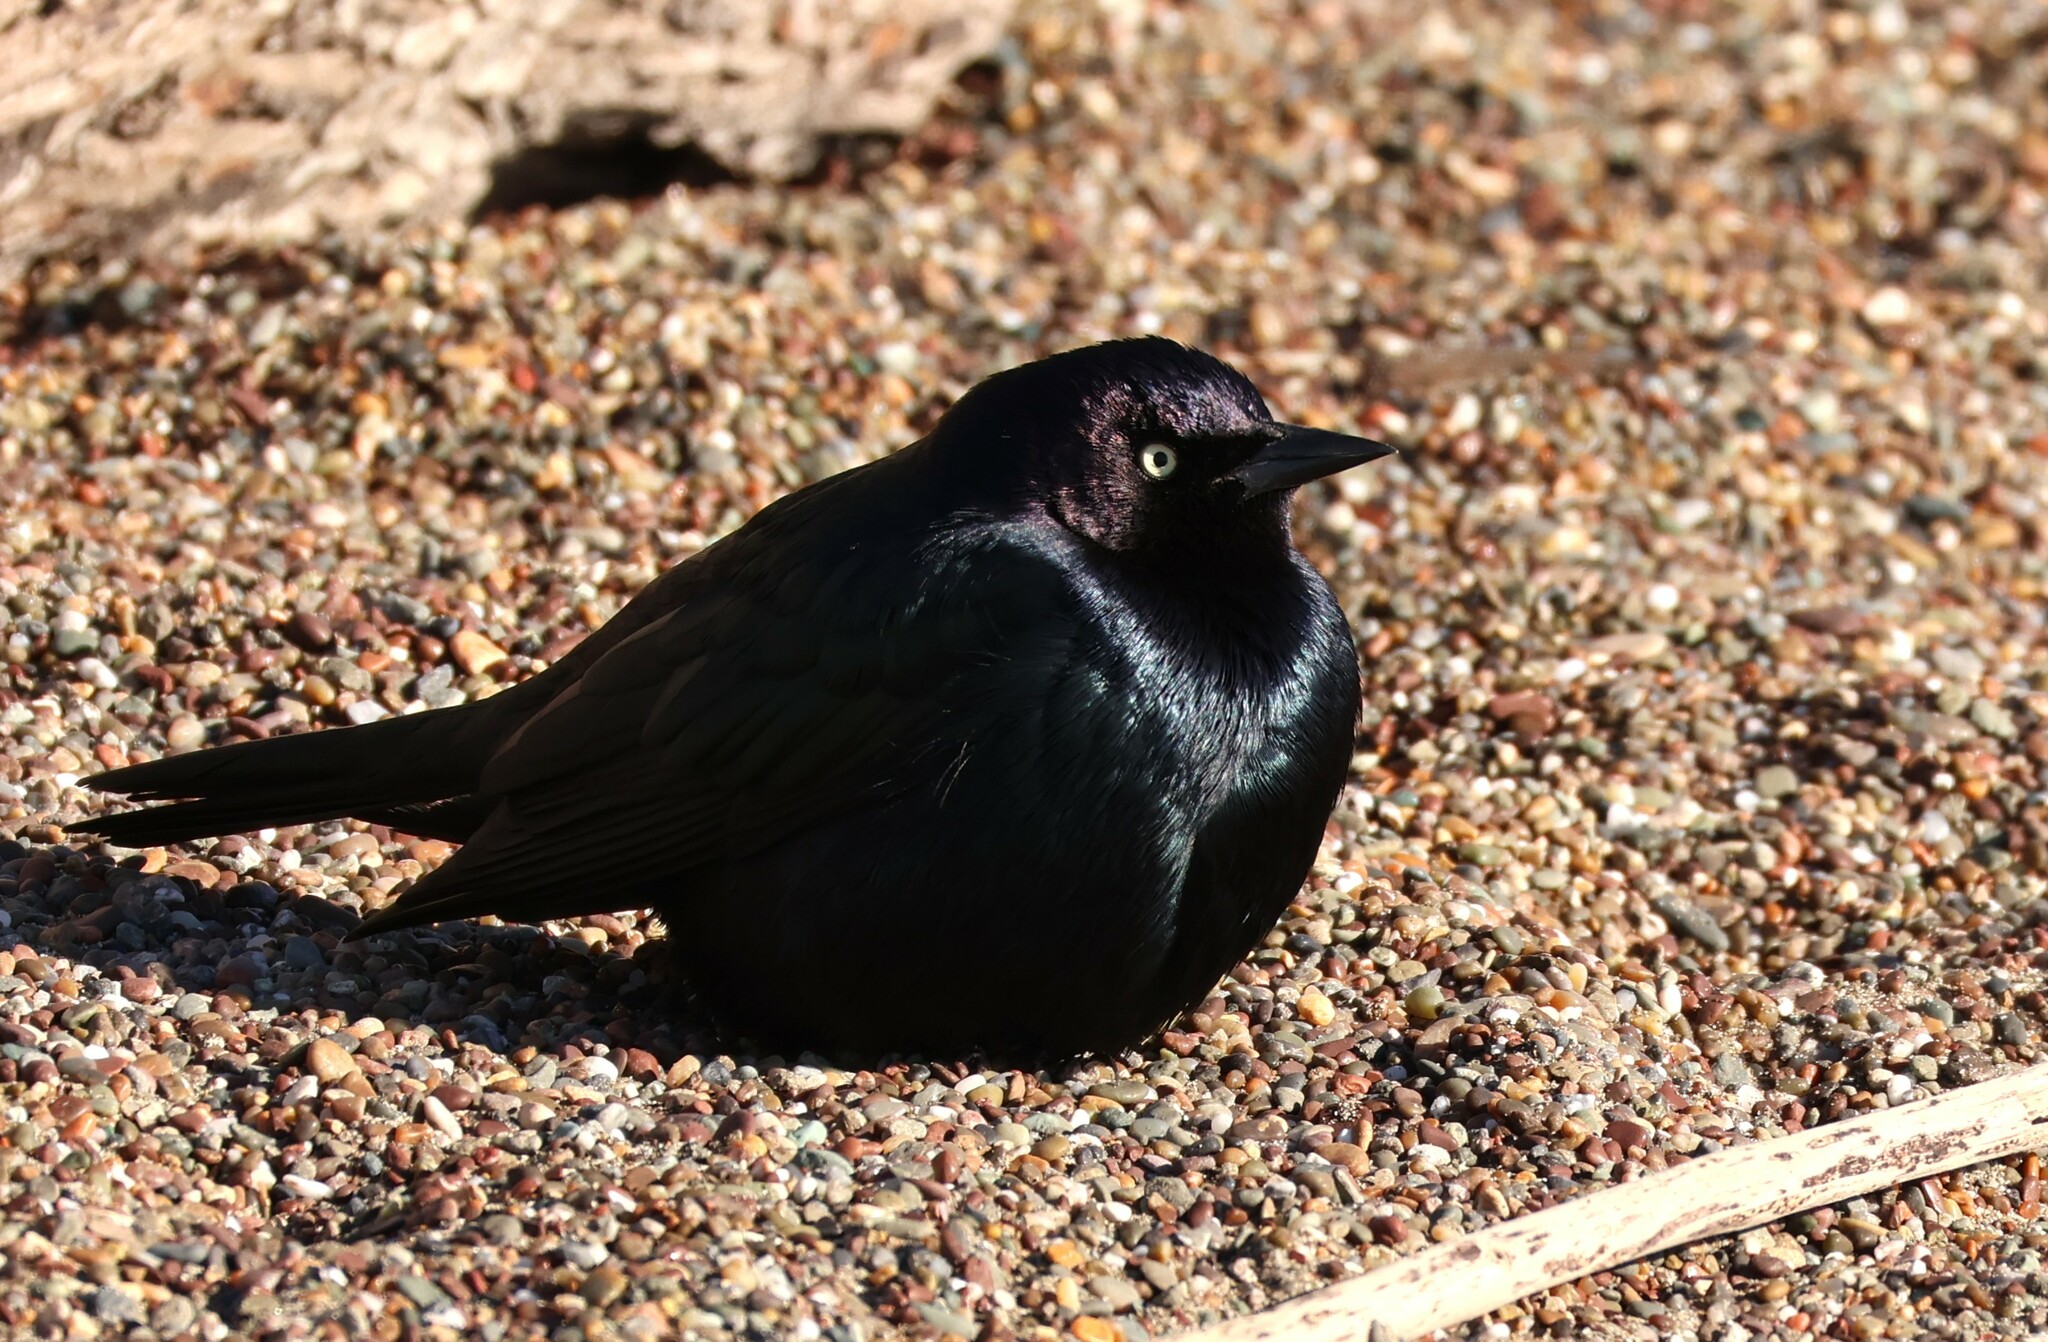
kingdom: Animalia
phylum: Chordata
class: Aves
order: Passeriformes
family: Icteridae
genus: Euphagus
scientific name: Euphagus cyanocephalus
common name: Brewer's blackbird
